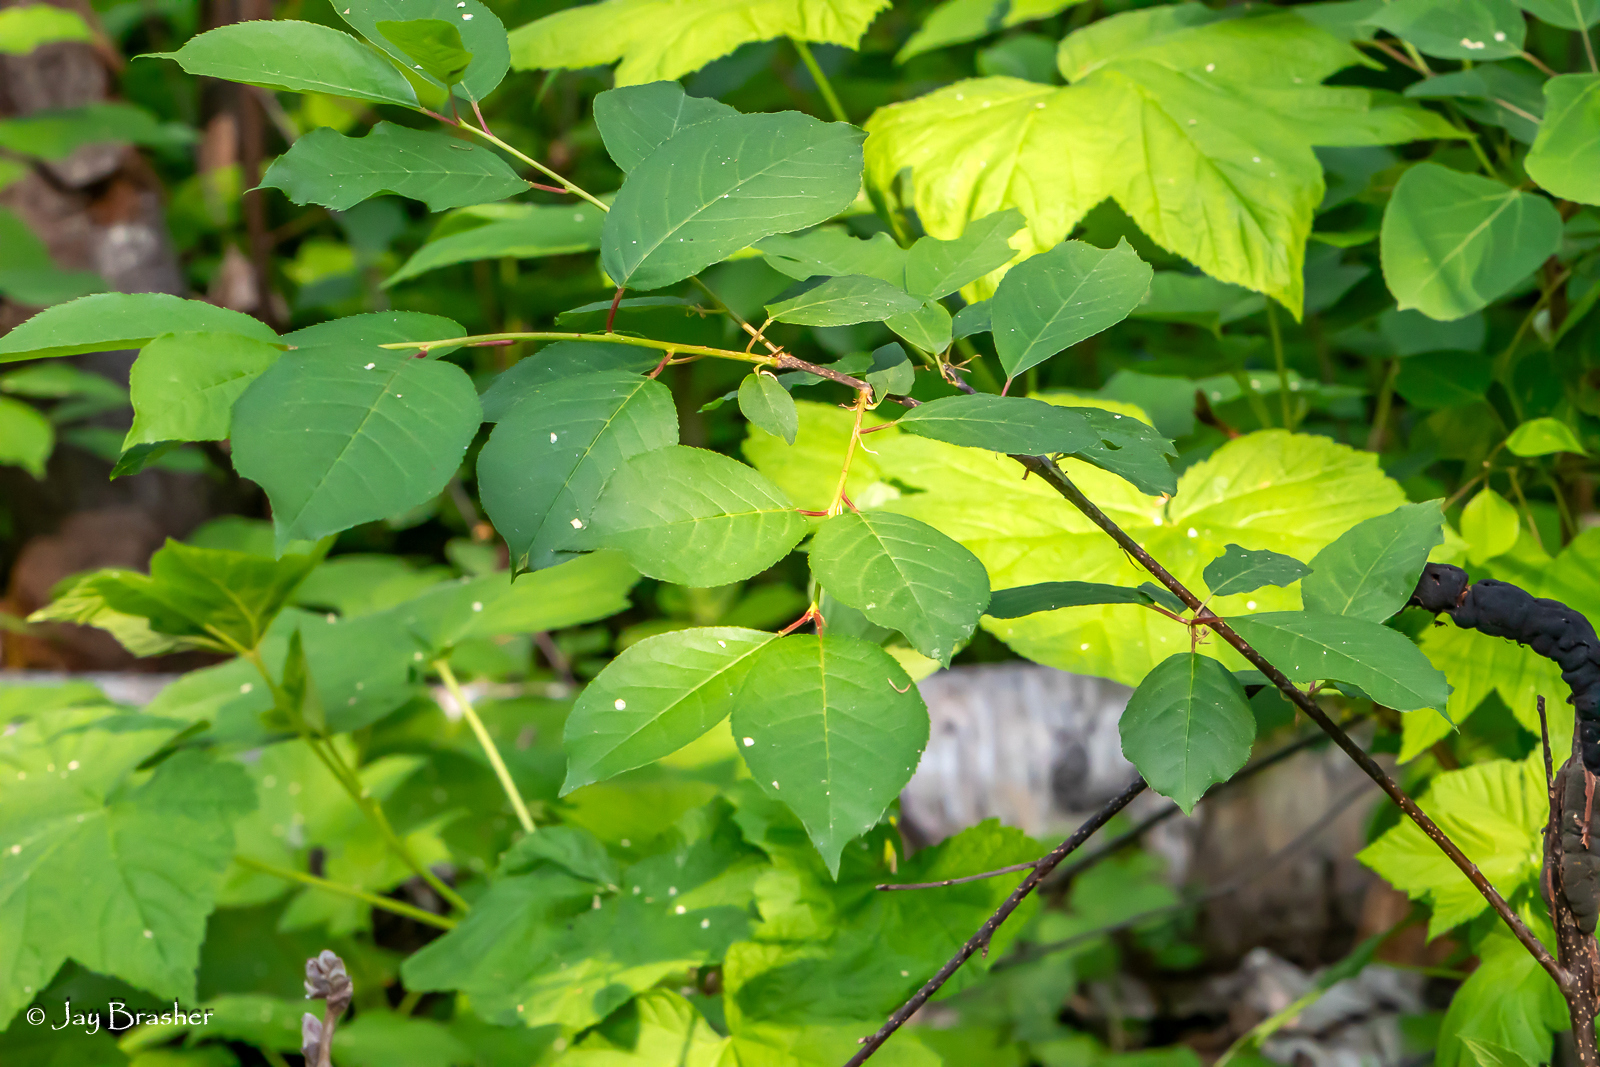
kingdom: Plantae
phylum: Tracheophyta
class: Magnoliopsida
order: Rosales
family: Rosaceae
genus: Prunus
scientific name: Prunus virginiana
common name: Chokecherry
